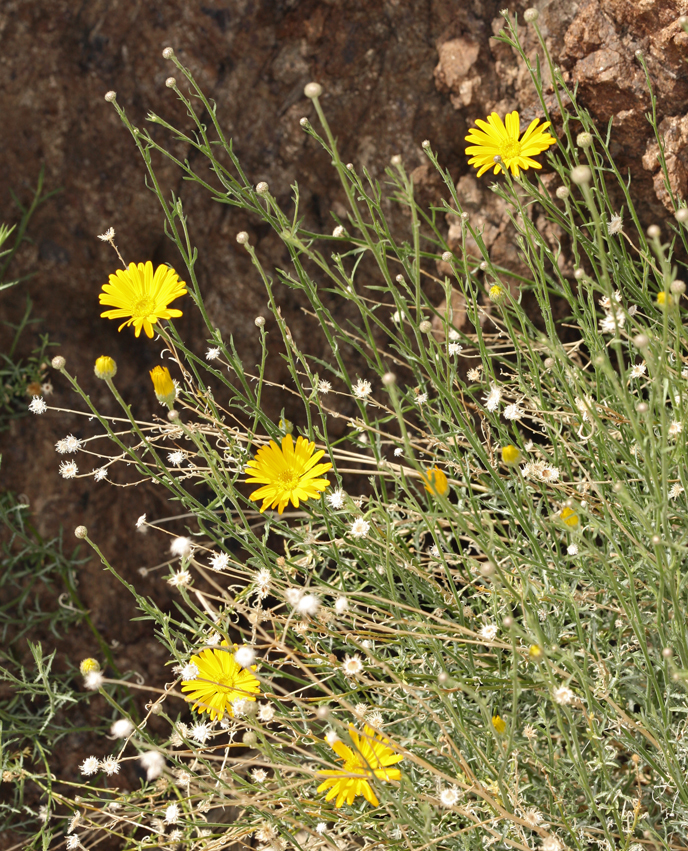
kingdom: Plantae
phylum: Tracheophyta
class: Magnoliopsida
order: Asterales
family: Asteraceae
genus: Xanthisma
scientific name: Xanthisma spinulosum
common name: Spiny goldenweed
